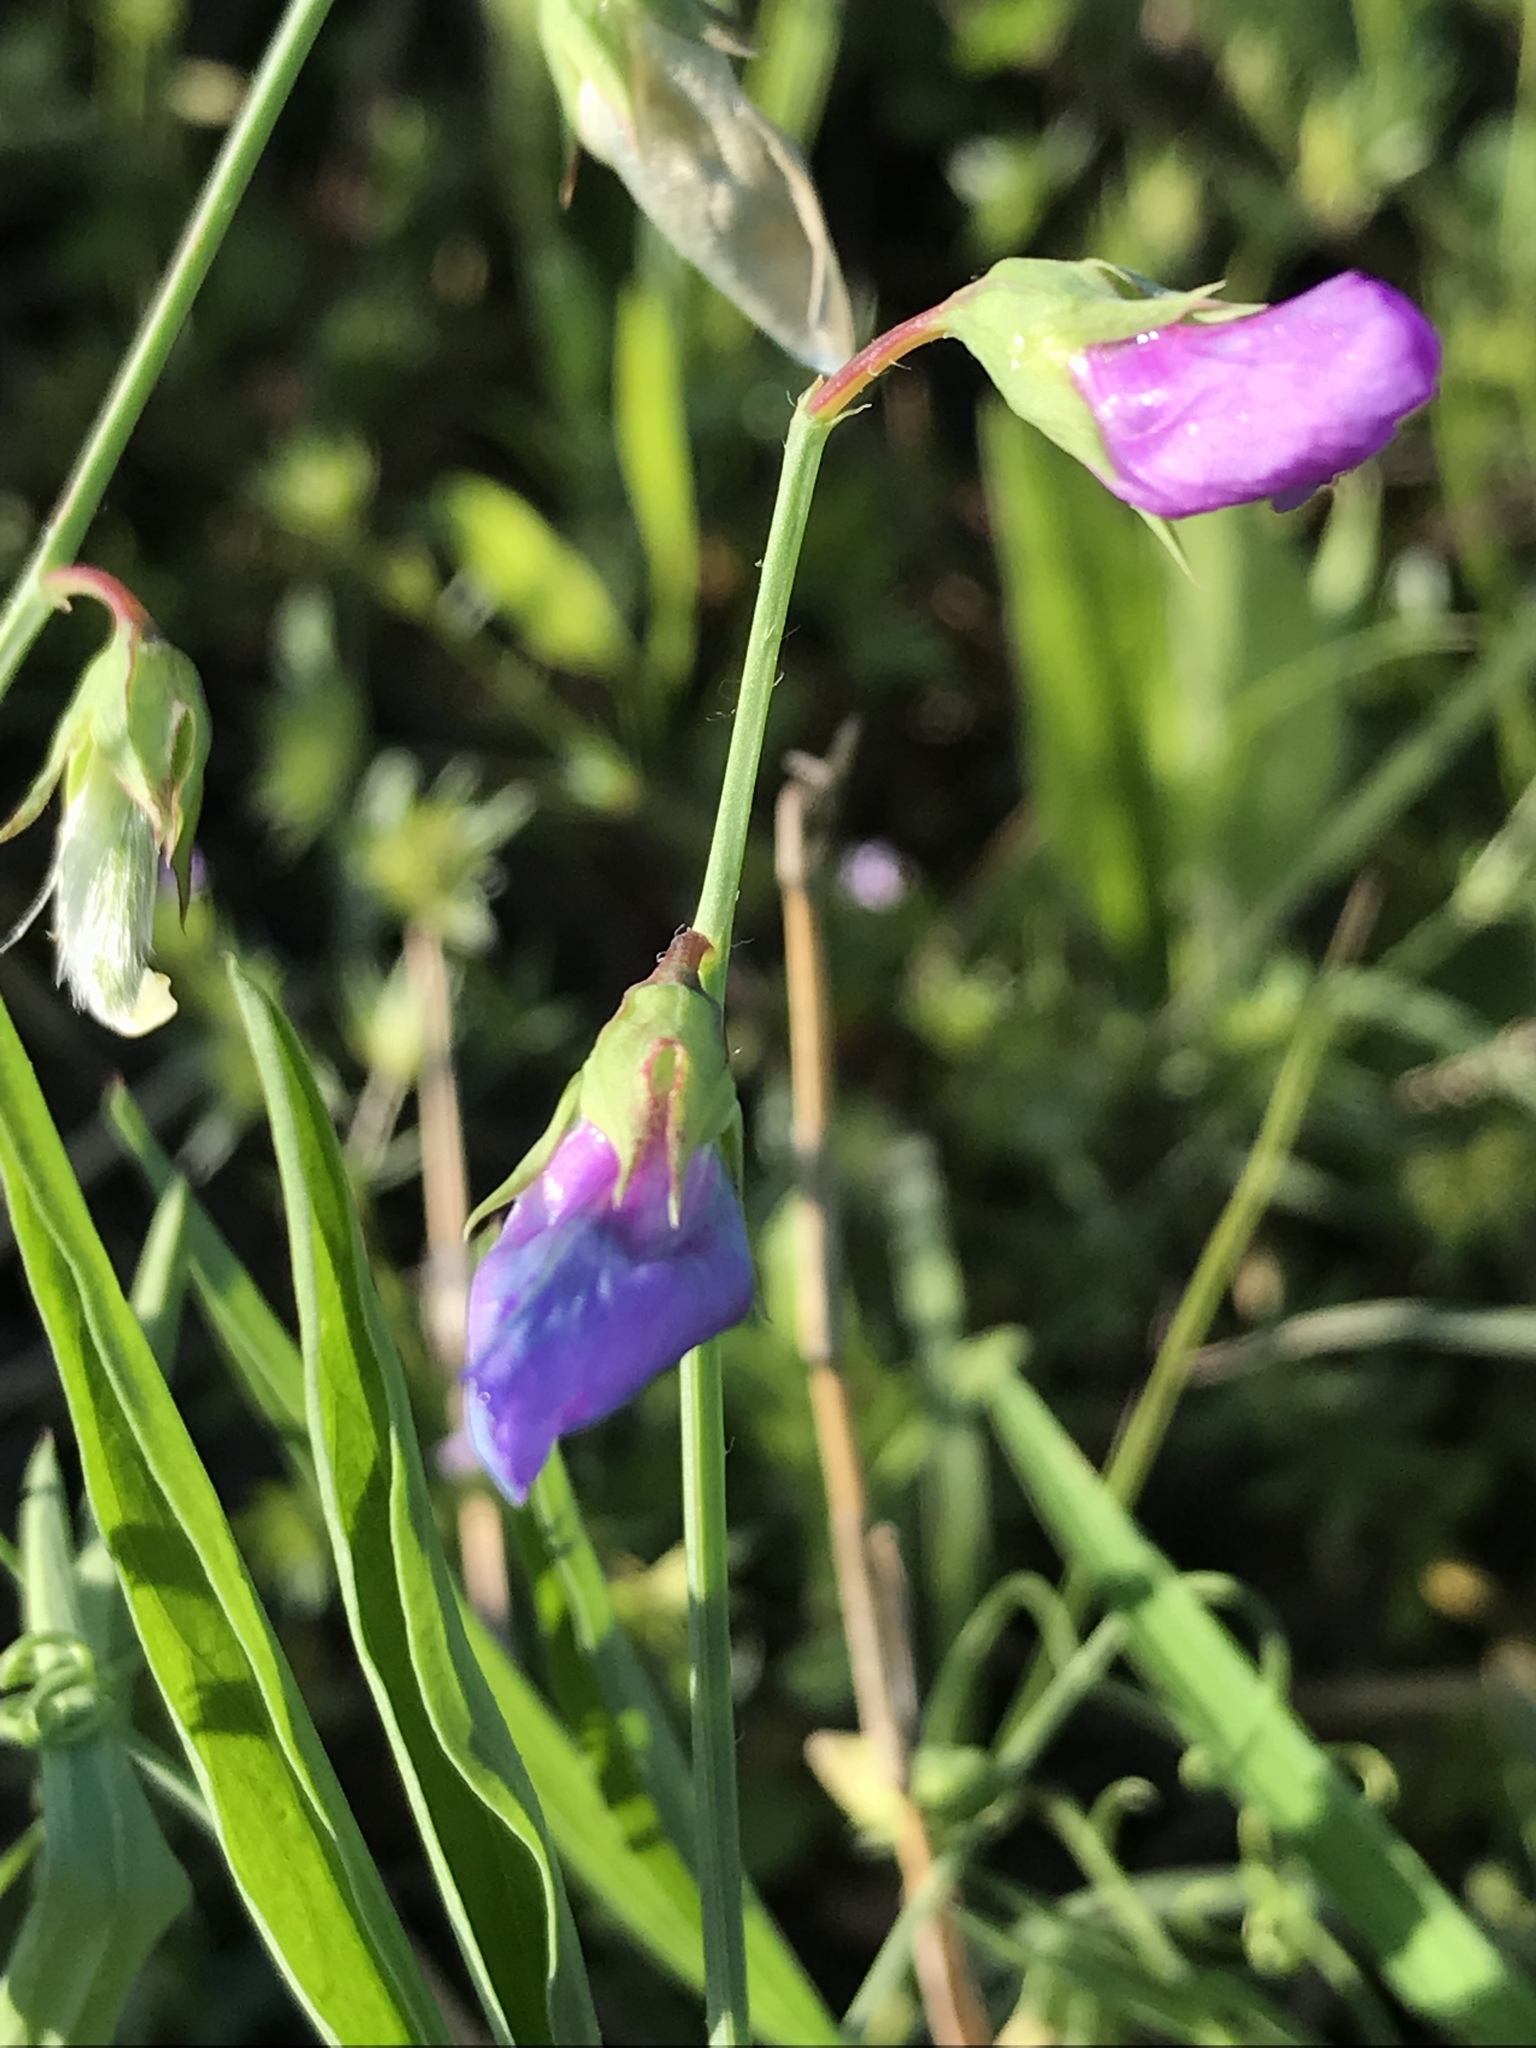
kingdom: Plantae
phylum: Tracheophyta
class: Magnoliopsida
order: Fabales
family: Fabaceae
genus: Lathyrus
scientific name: Lathyrus hirsutus
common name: Hairy vetchling
